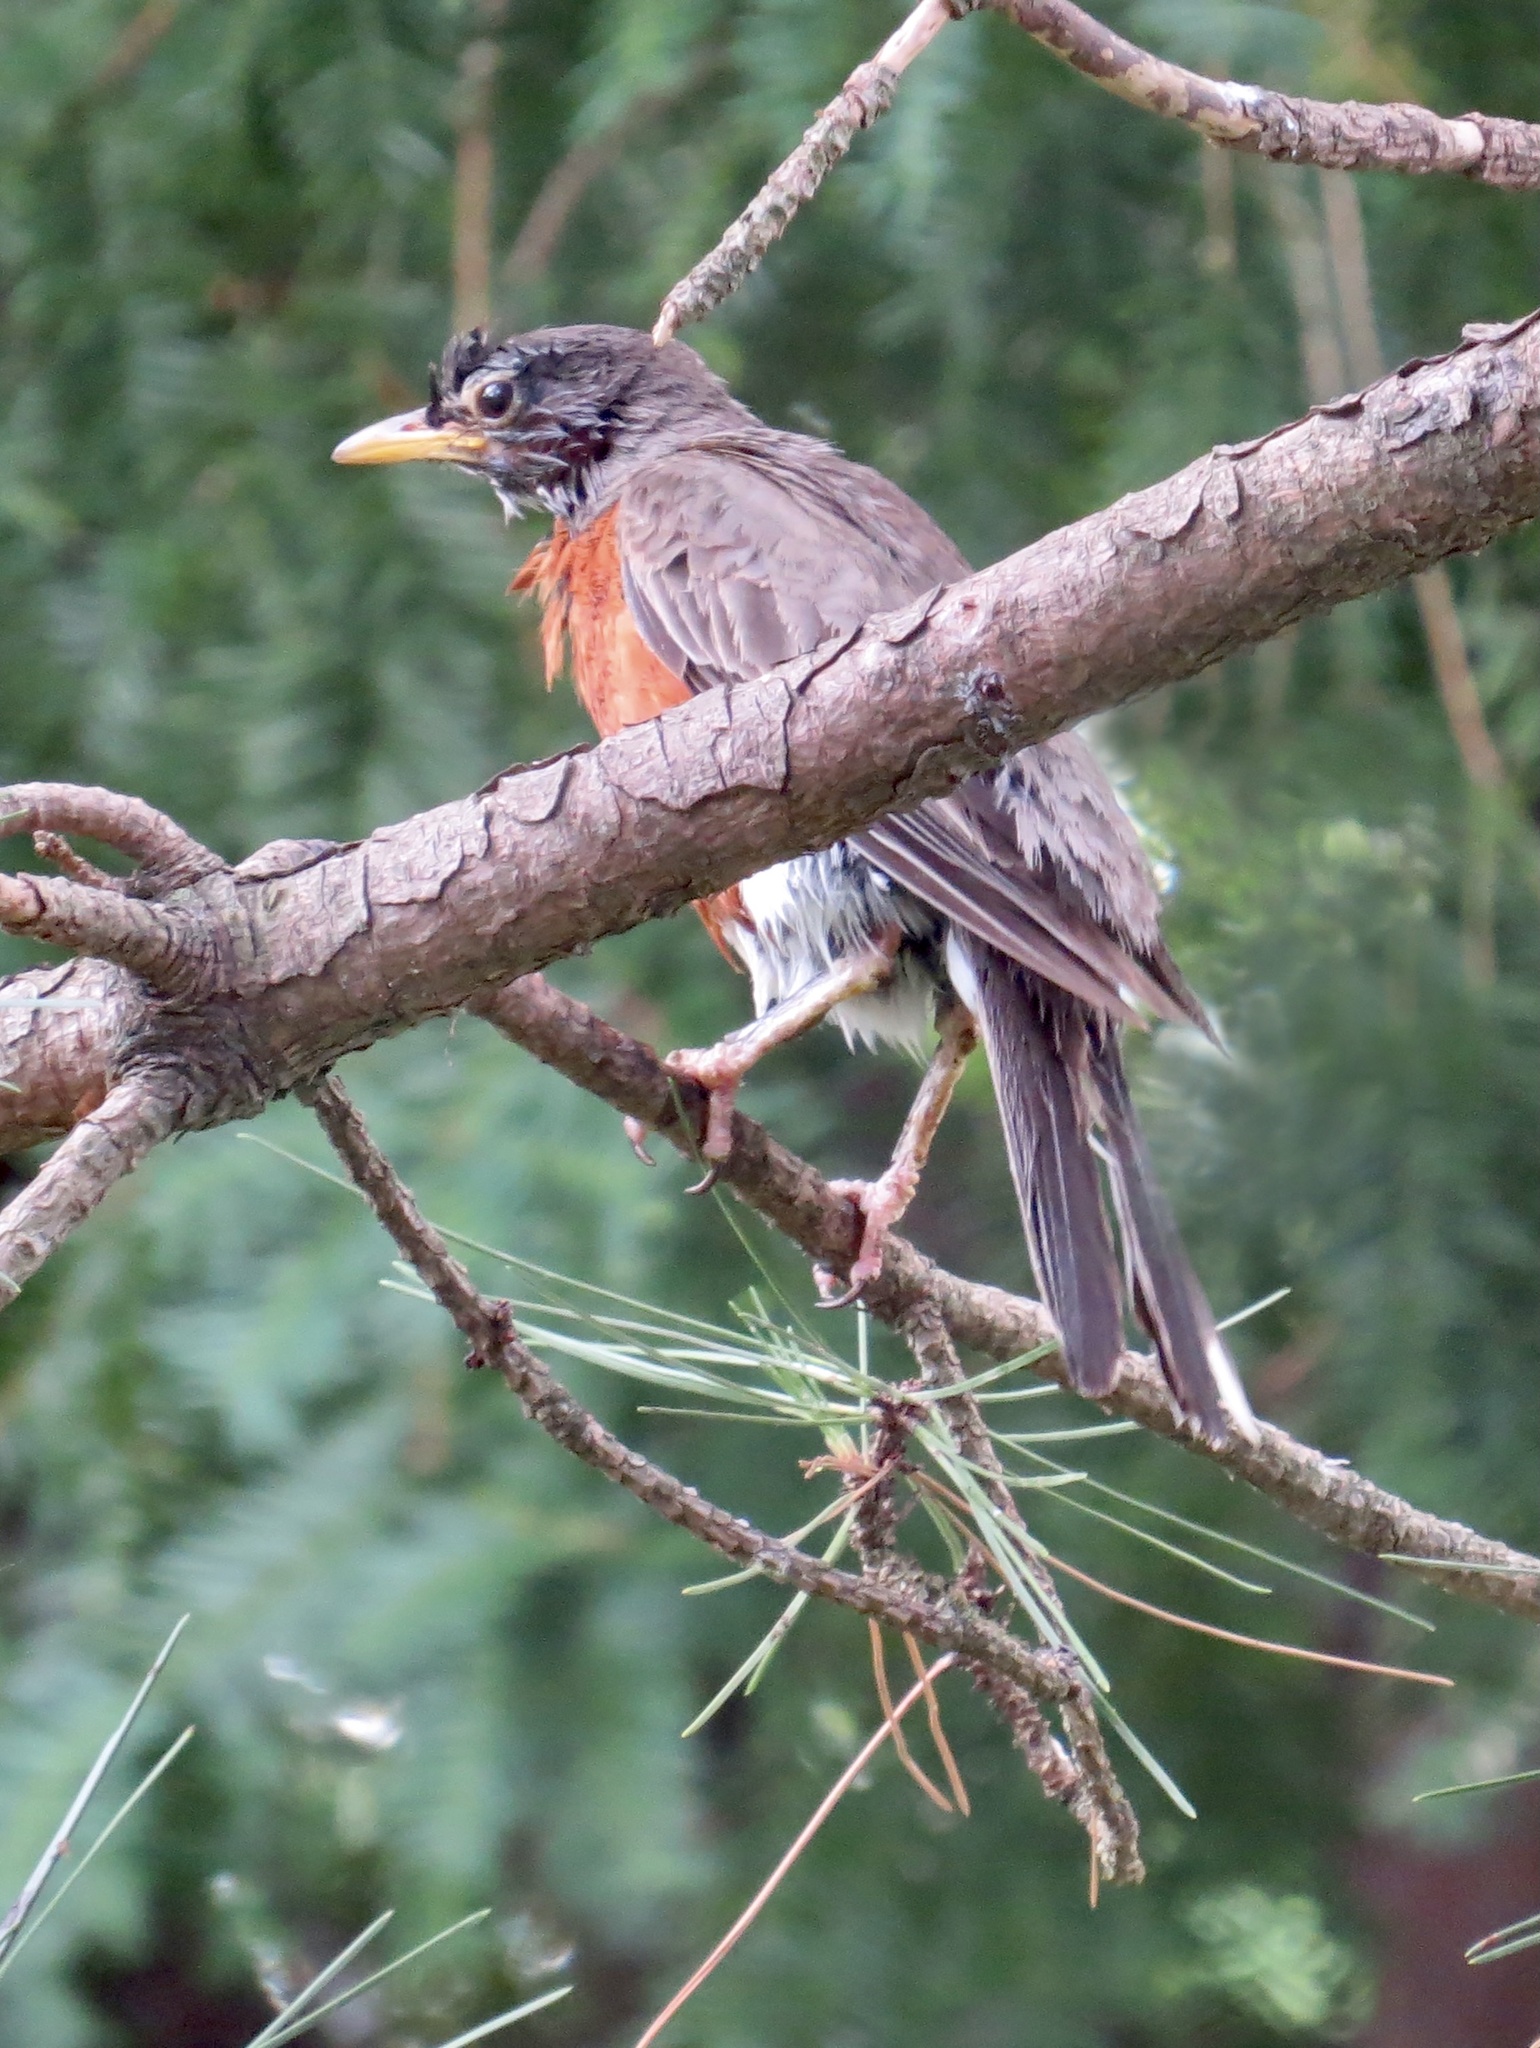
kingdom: Animalia
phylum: Chordata
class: Aves
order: Passeriformes
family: Turdidae
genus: Turdus
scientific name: Turdus migratorius
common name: American robin
